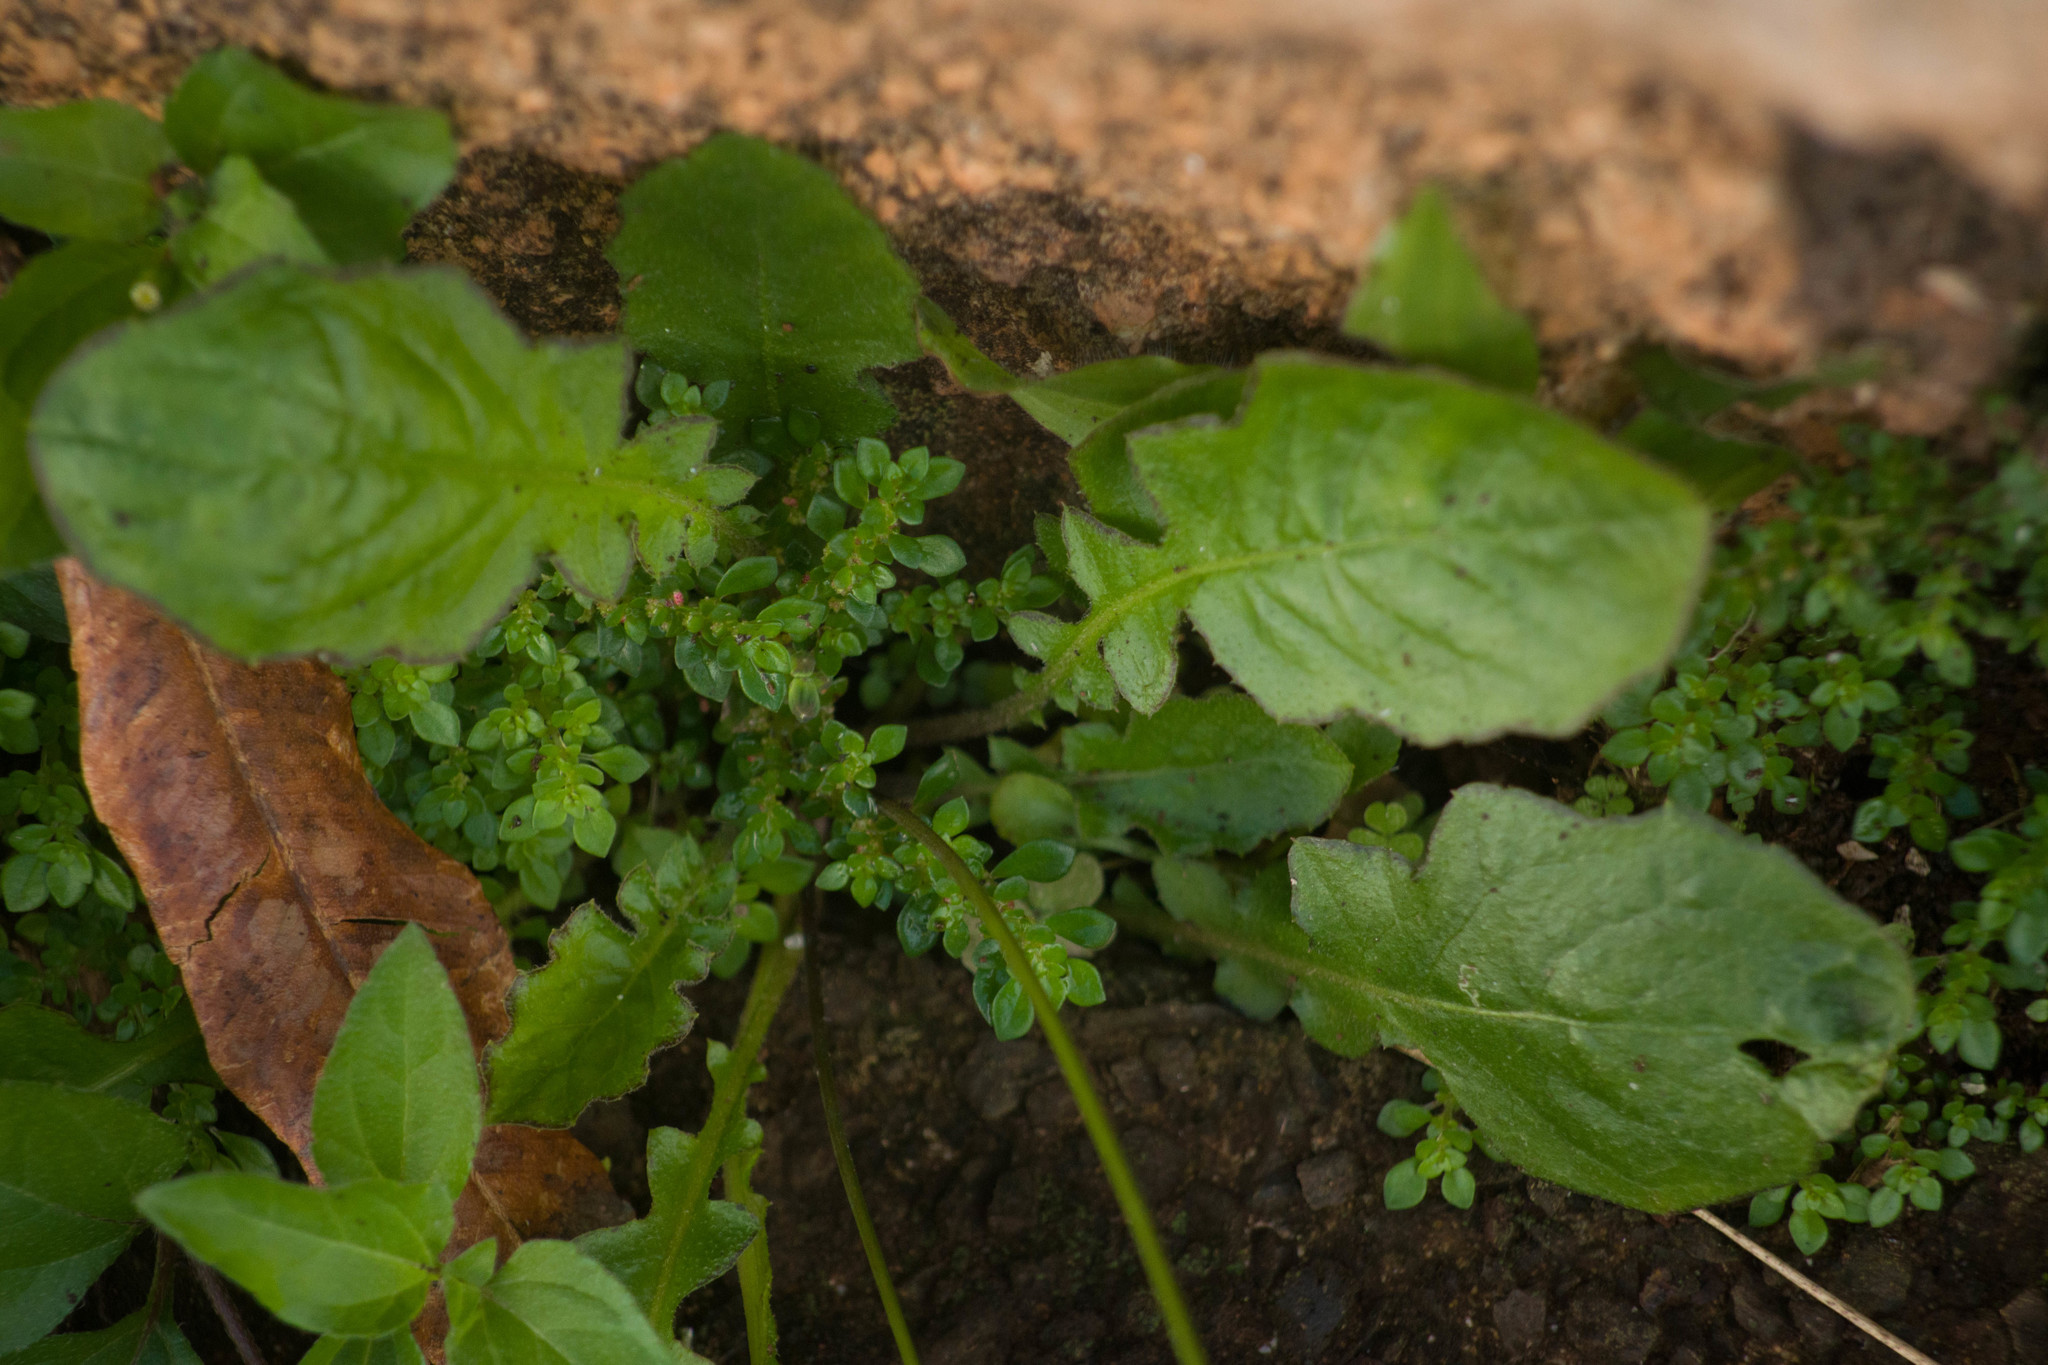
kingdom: Plantae
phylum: Tracheophyta
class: Magnoliopsida
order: Asterales
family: Asteraceae
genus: Youngia
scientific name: Youngia japonica
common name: Oriental false hawksbeard
